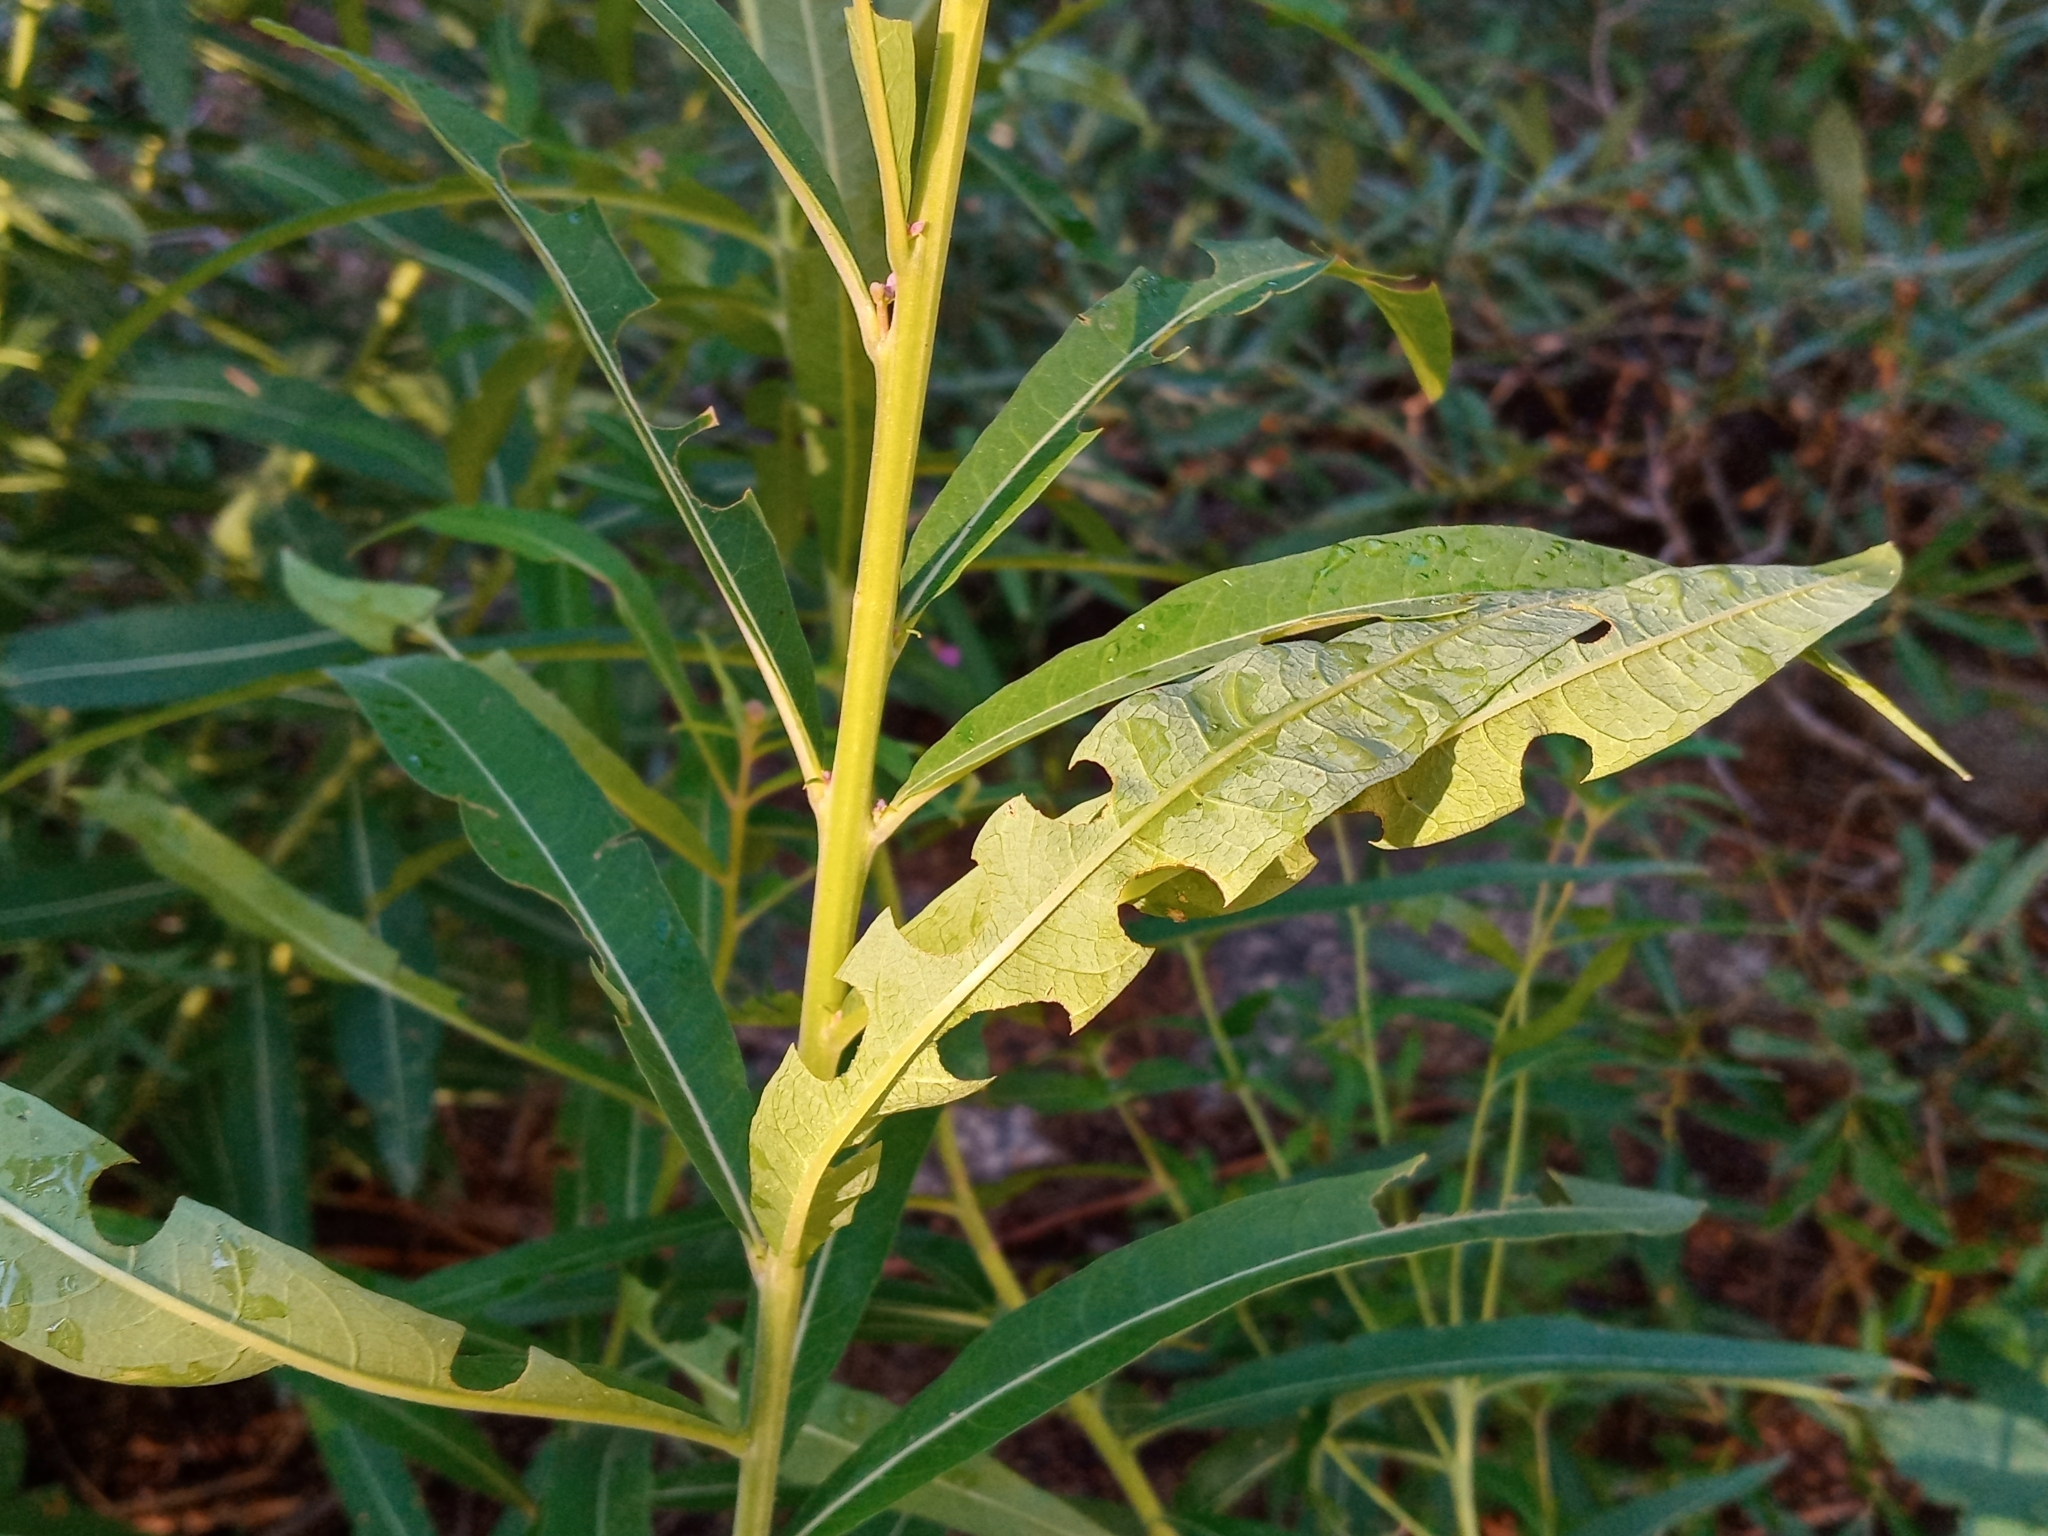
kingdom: Plantae
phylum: Tracheophyta
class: Magnoliopsida
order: Myrtales
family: Onagraceae
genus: Chamaenerion
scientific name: Chamaenerion angustifolium
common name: Fireweed
